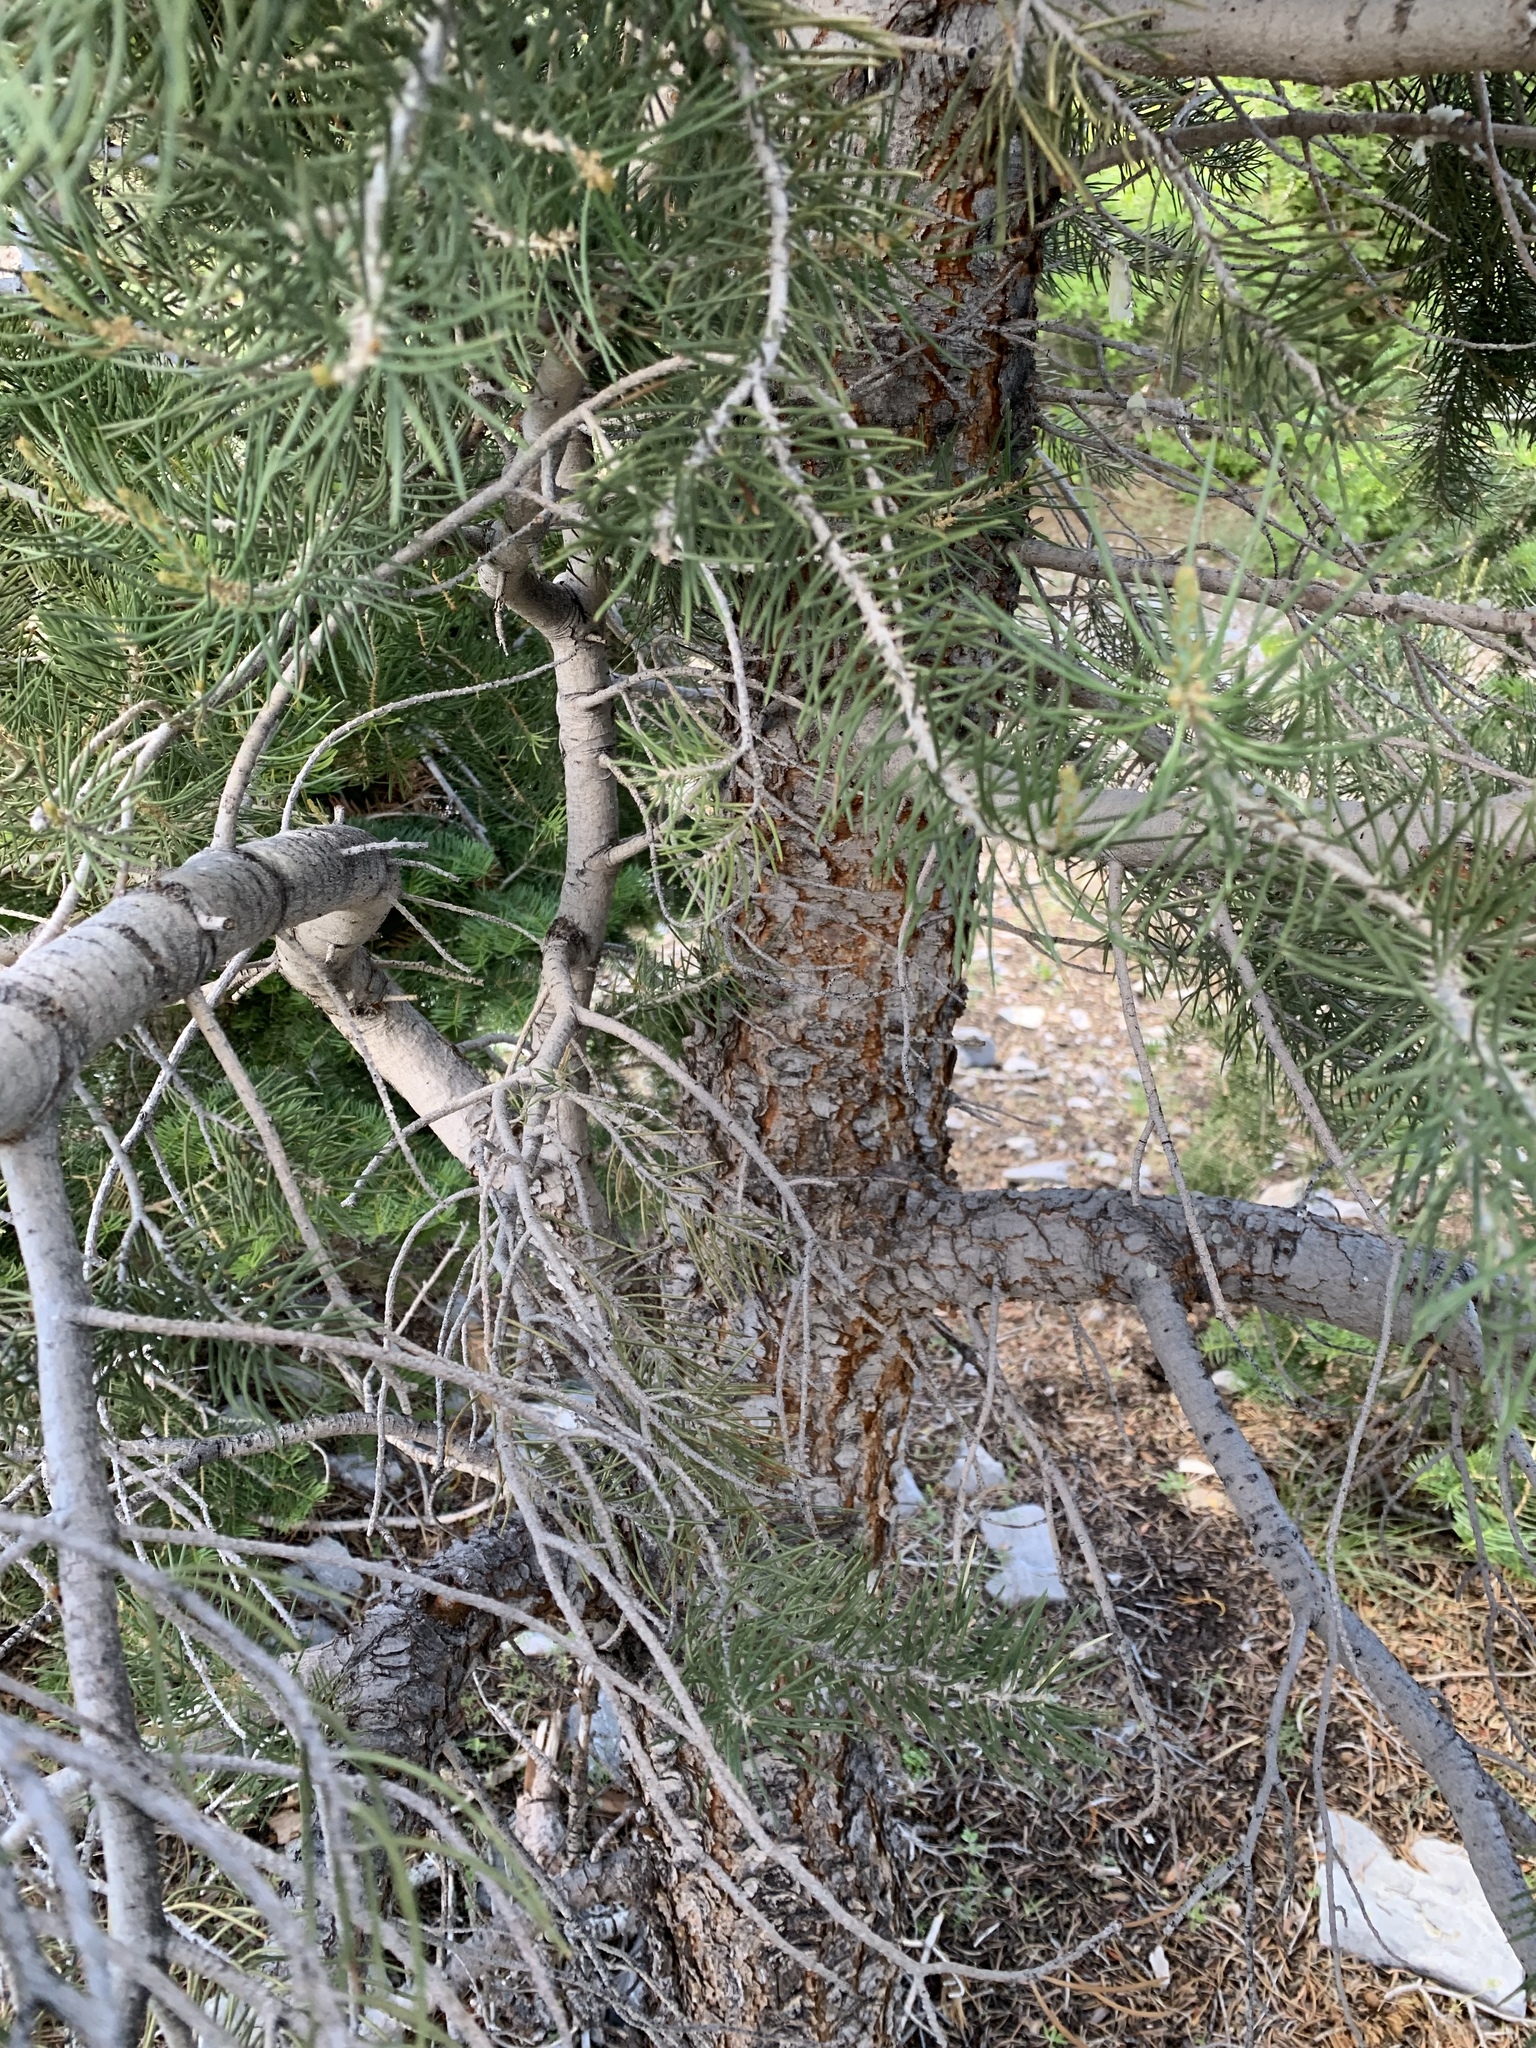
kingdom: Plantae
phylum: Tracheophyta
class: Pinopsida
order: Pinales
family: Pinaceae
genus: Pinus
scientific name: Pinus monophylla
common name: One-leaved nut pine
